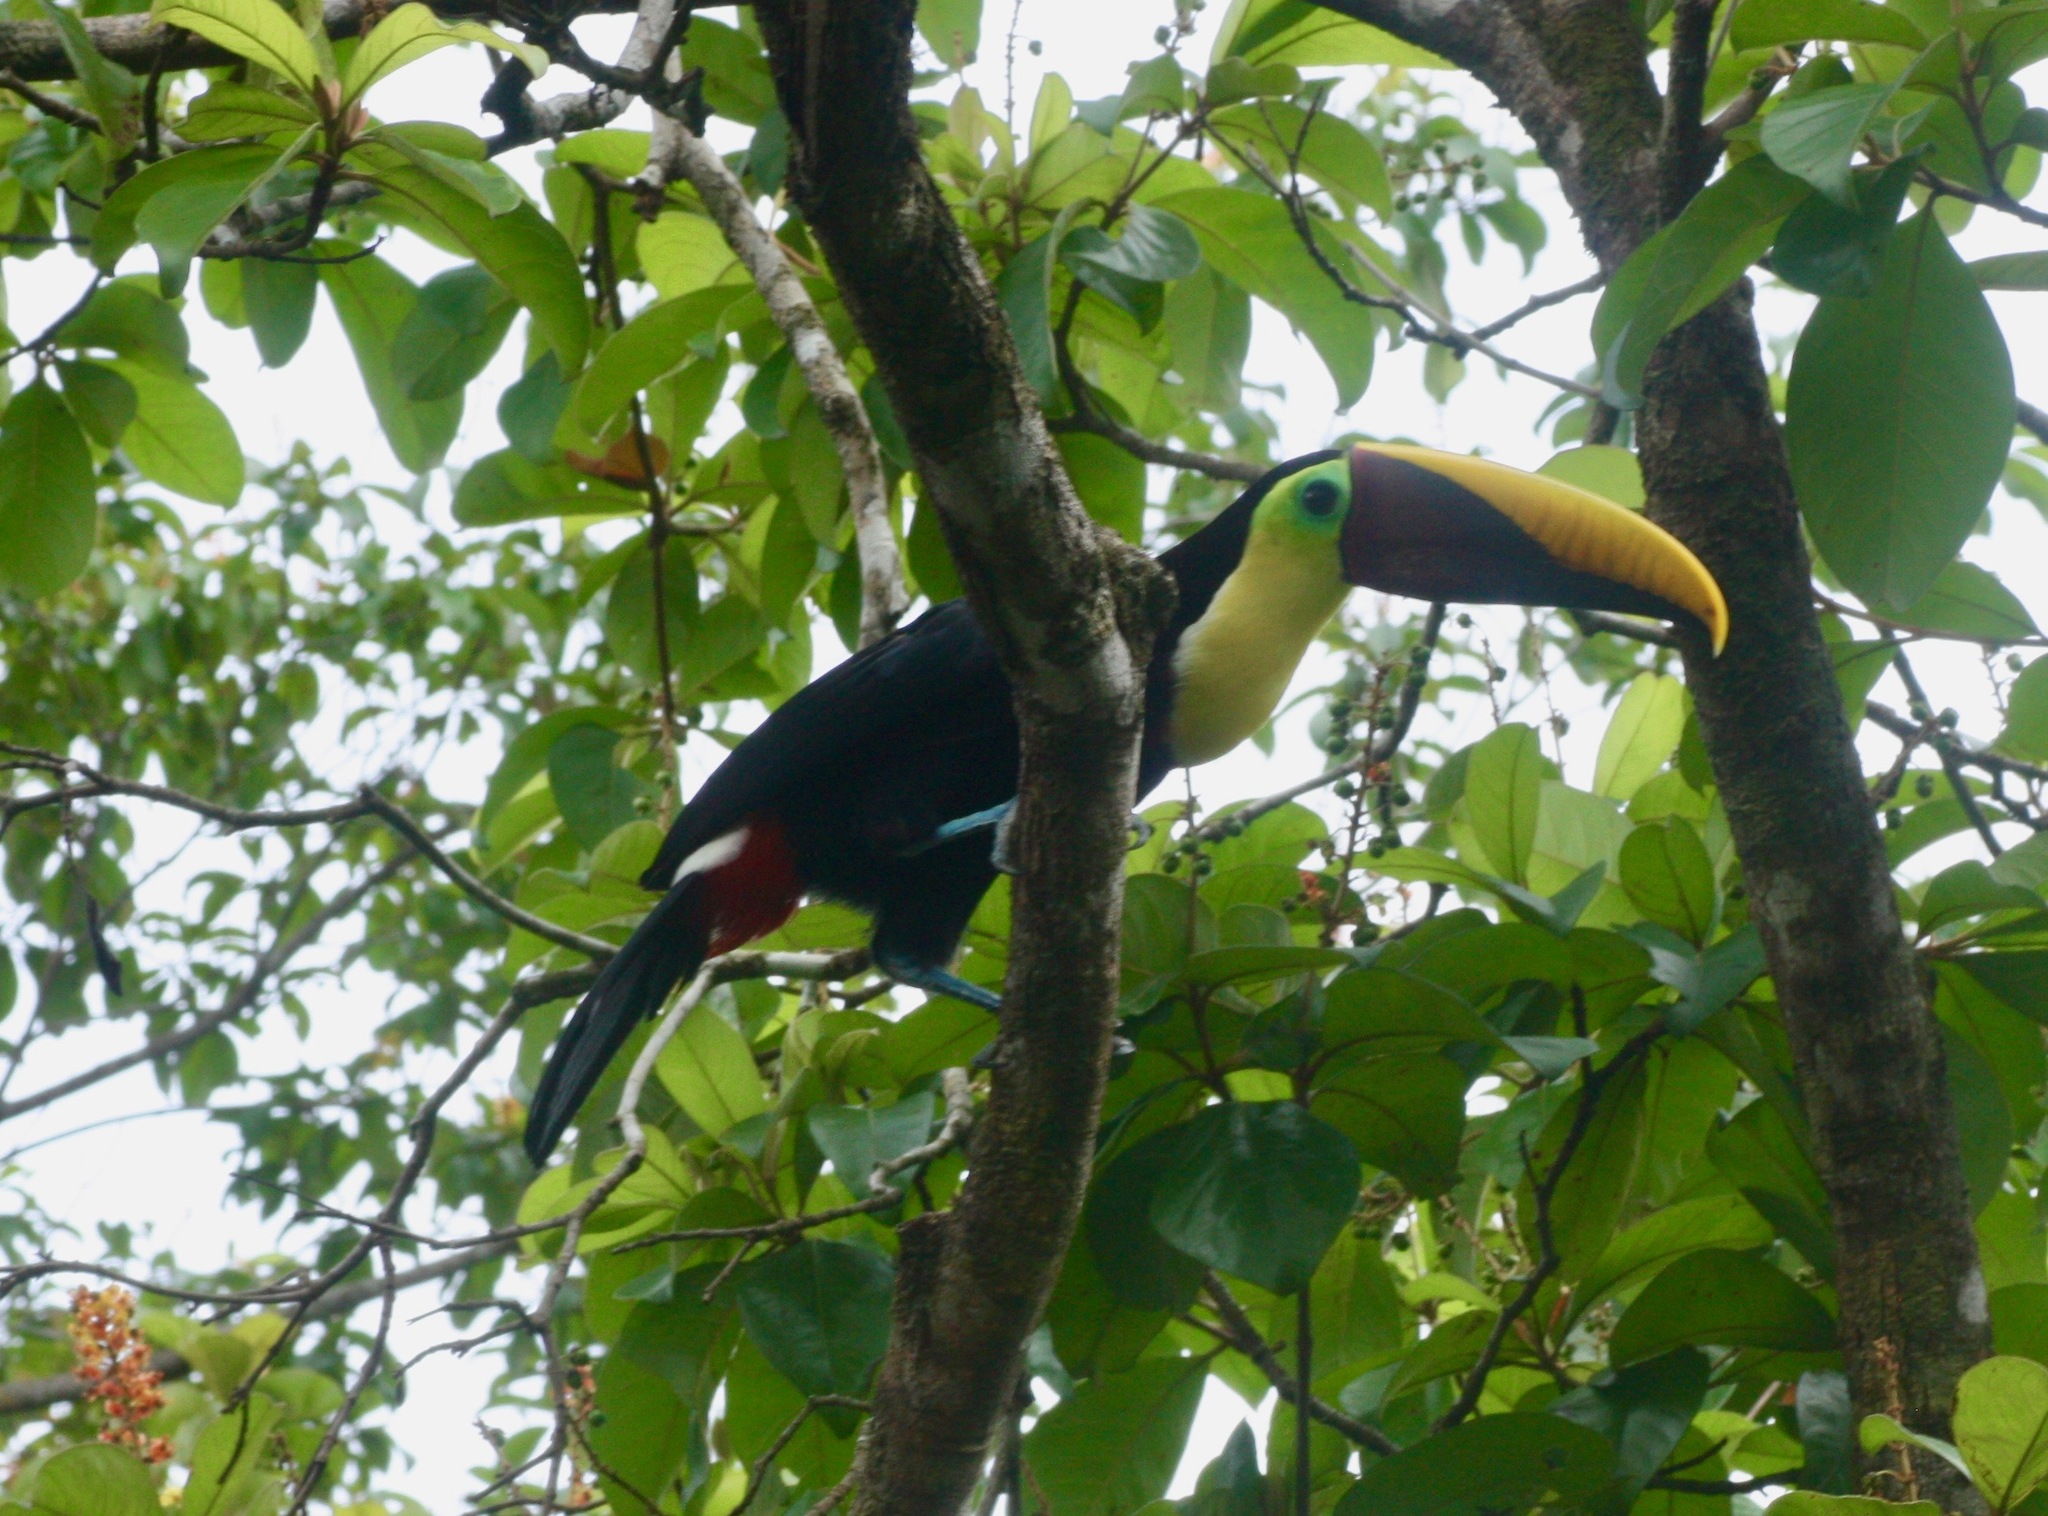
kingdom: Animalia
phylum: Chordata
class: Aves
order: Piciformes
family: Ramphastidae
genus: Ramphastos
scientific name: Ramphastos ambiguus
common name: Yellow-throated toucan
